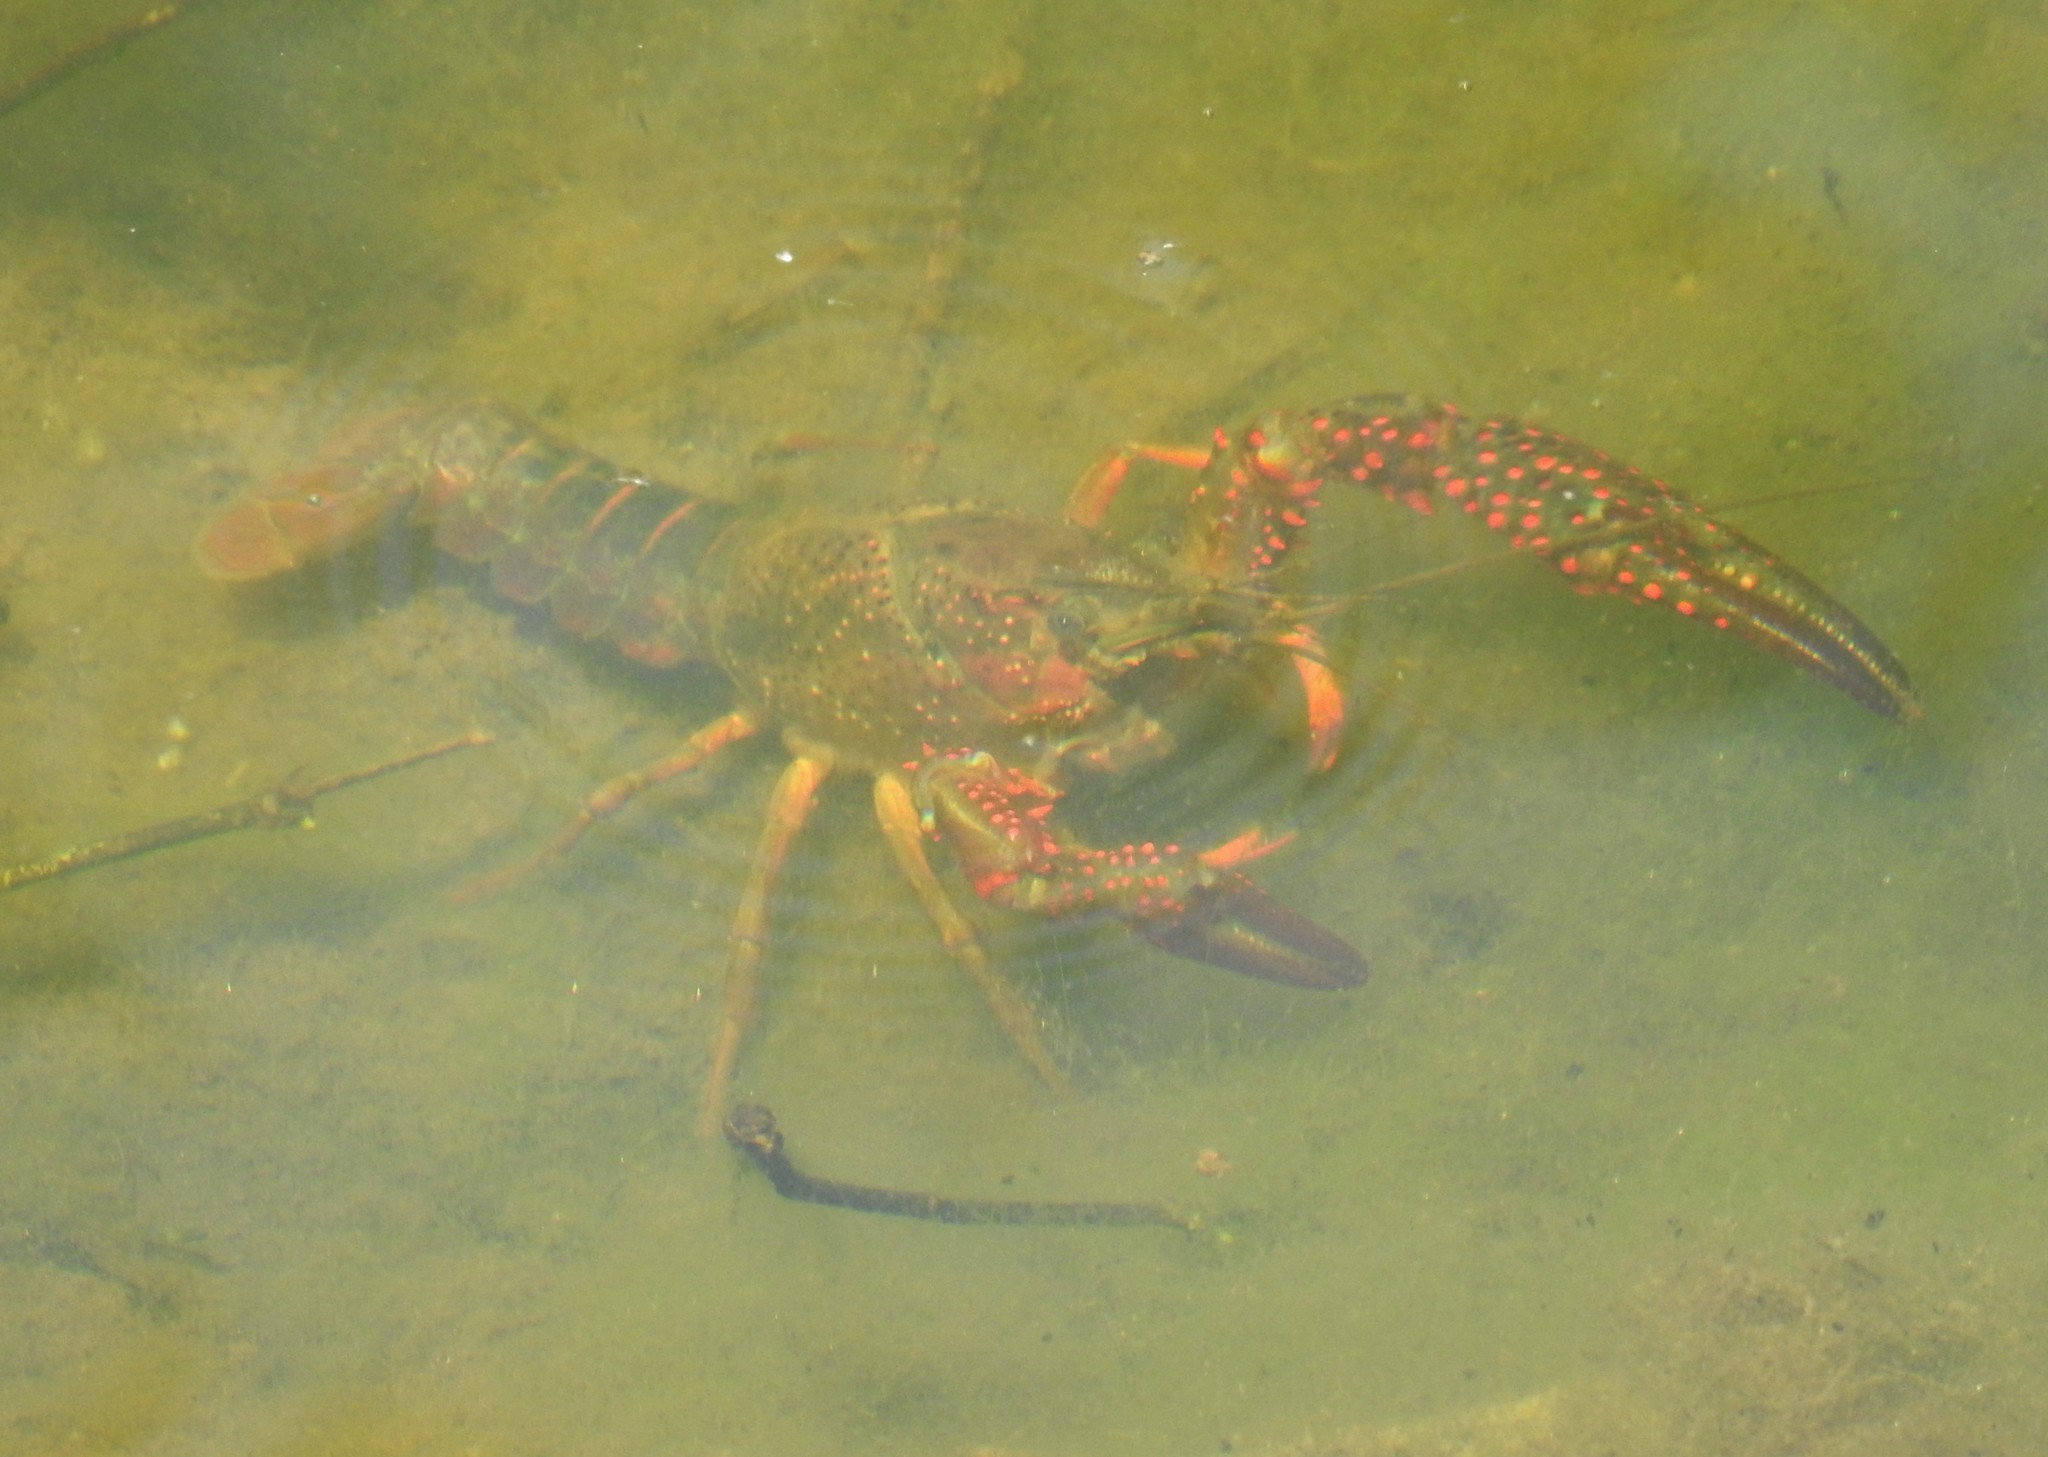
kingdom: Animalia
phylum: Arthropoda
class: Malacostraca
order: Decapoda
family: Cambaridae
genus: Procambarus
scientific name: Procambarus clarkii
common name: Red swamp crayfish
